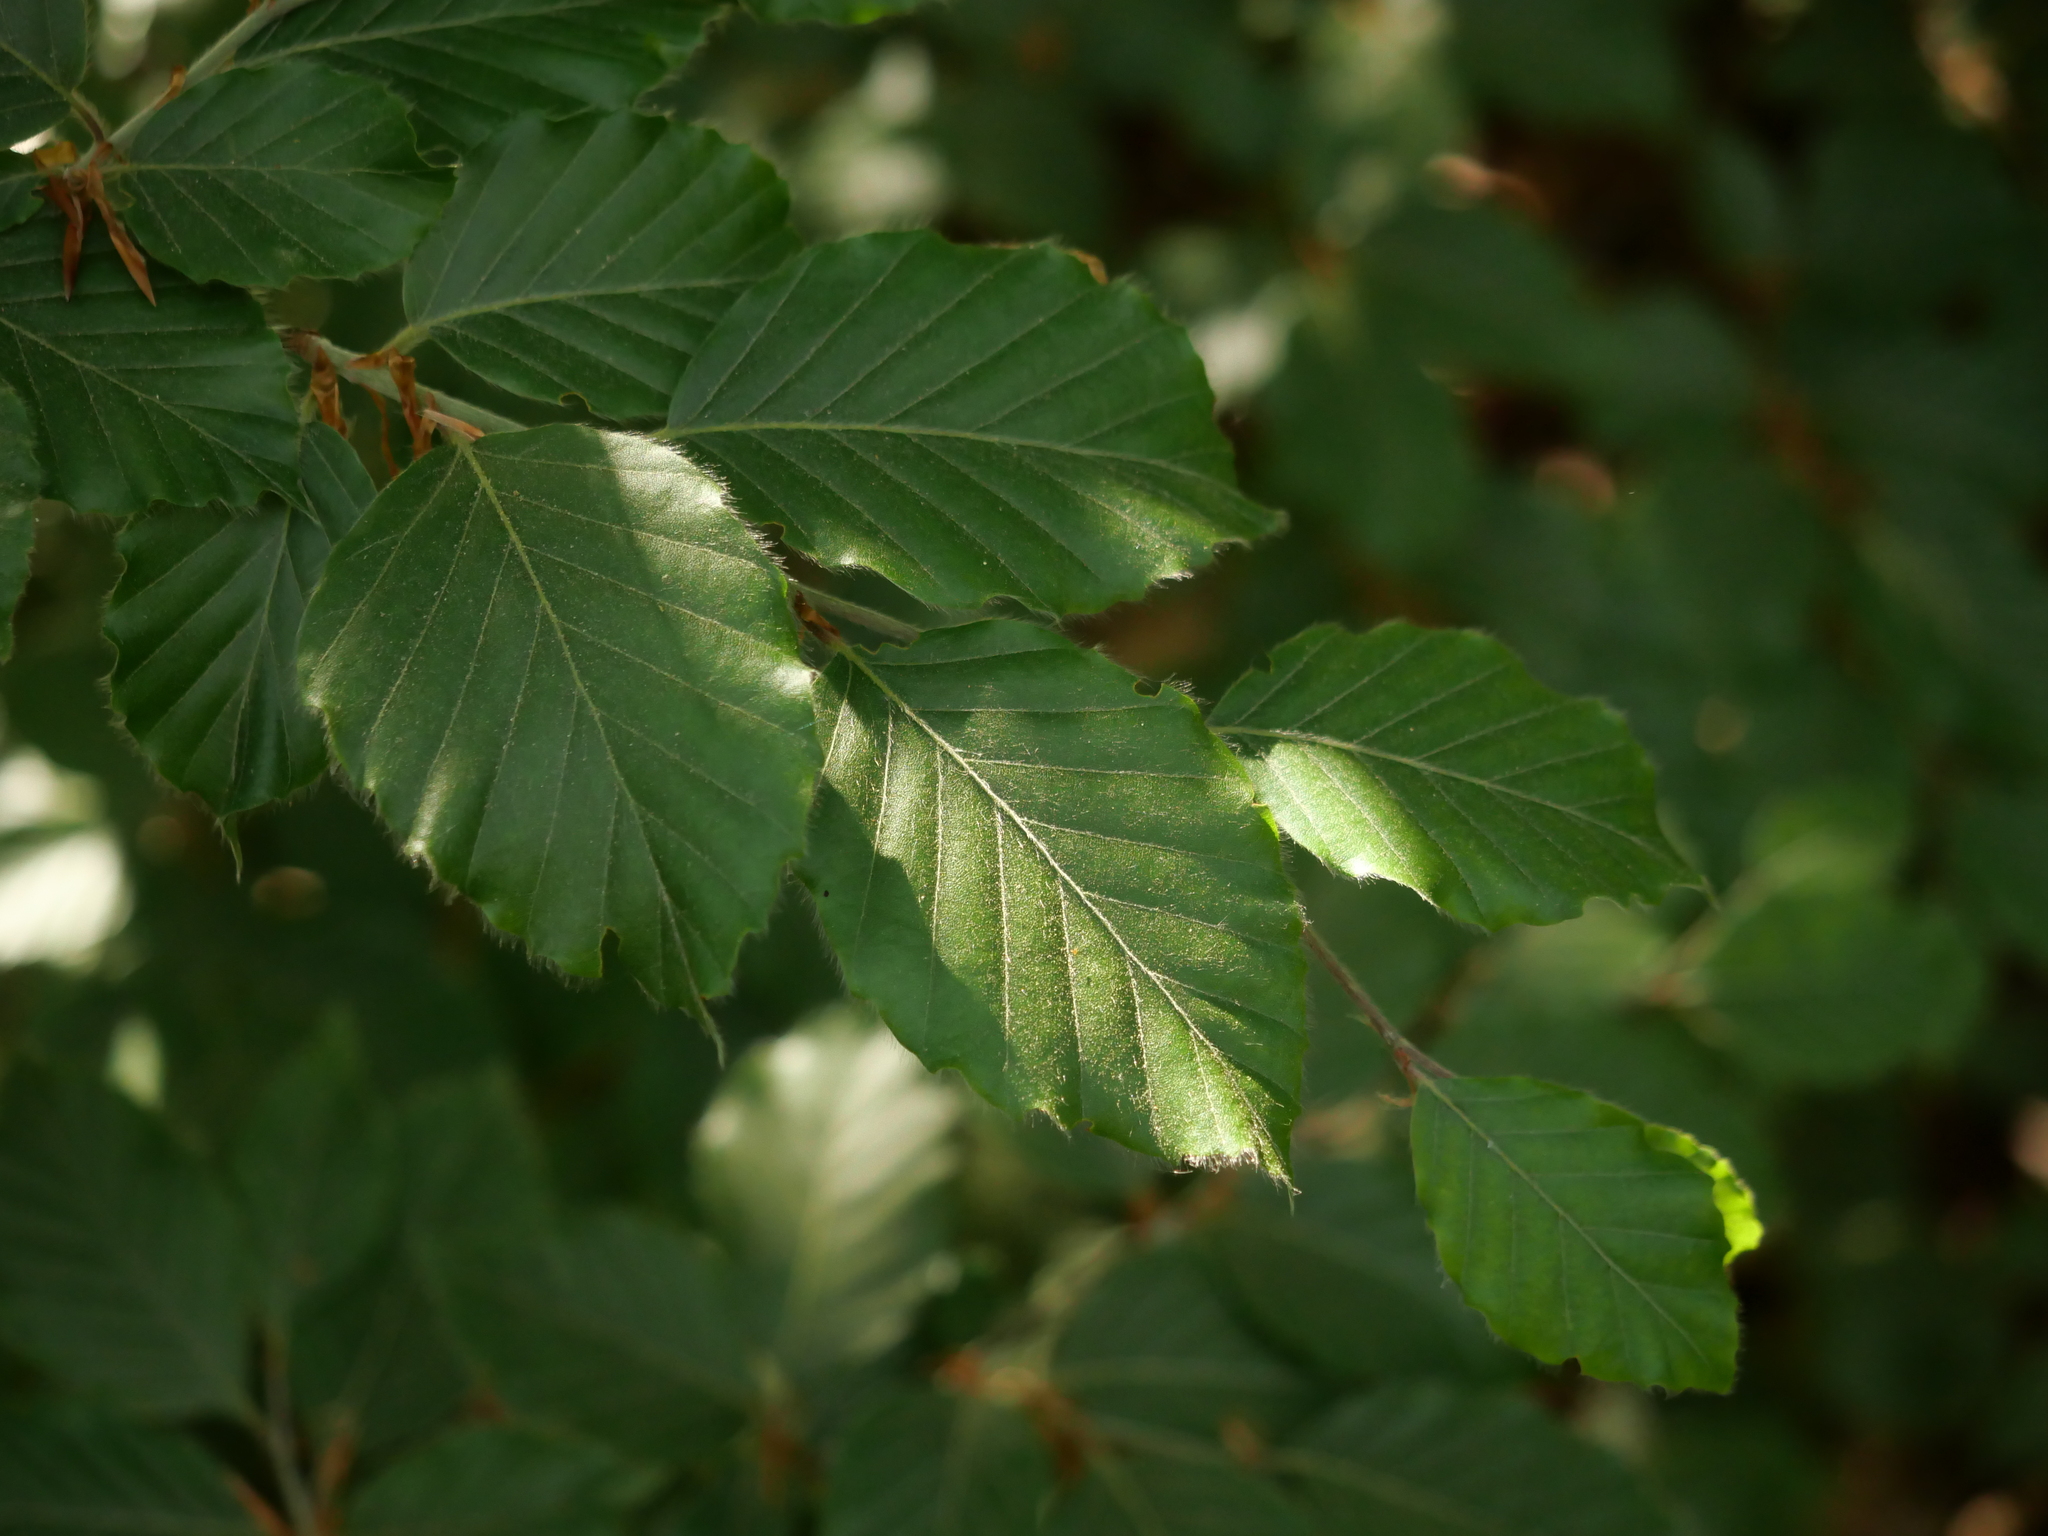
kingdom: Plantae
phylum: Tracheophyta
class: Magnoliopsida
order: Fagales
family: Fagaceae
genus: Fagus
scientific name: Fagus sylvatica
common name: Beech
